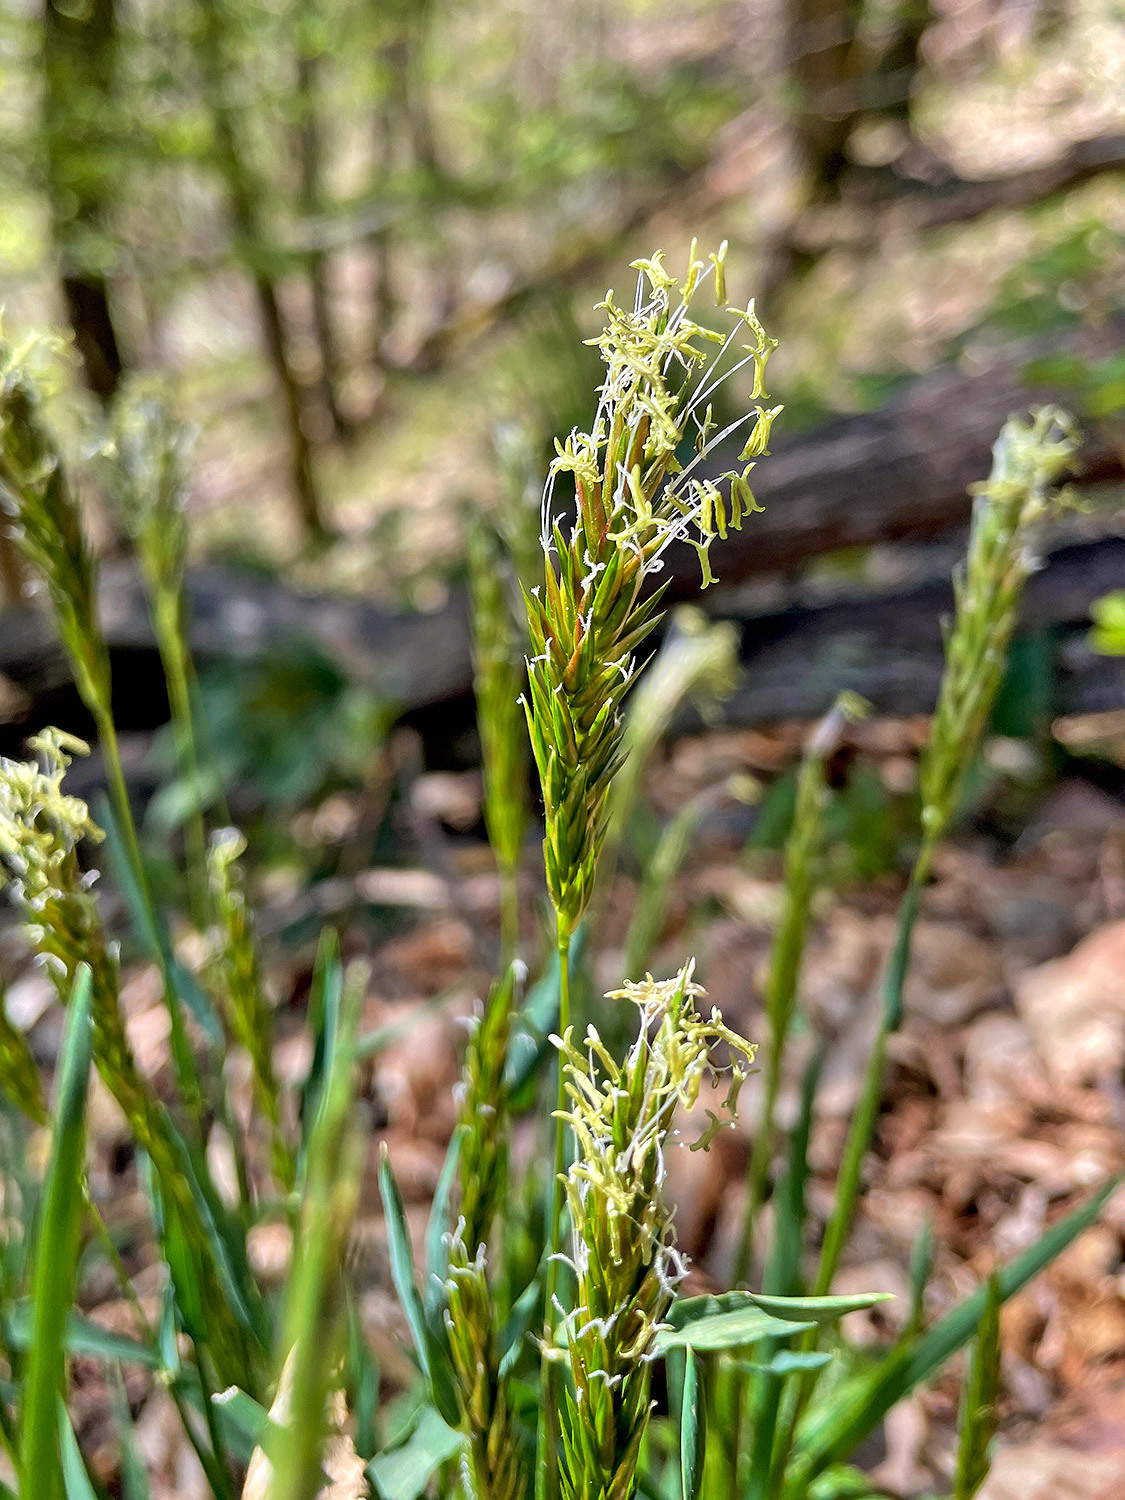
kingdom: Plantae
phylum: Tracheophyta
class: Liliopsida
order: Poales
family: Poaceae
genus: Anthoxanthum
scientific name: Anthoxanthum odoratum
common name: Sweet vernalgrass
